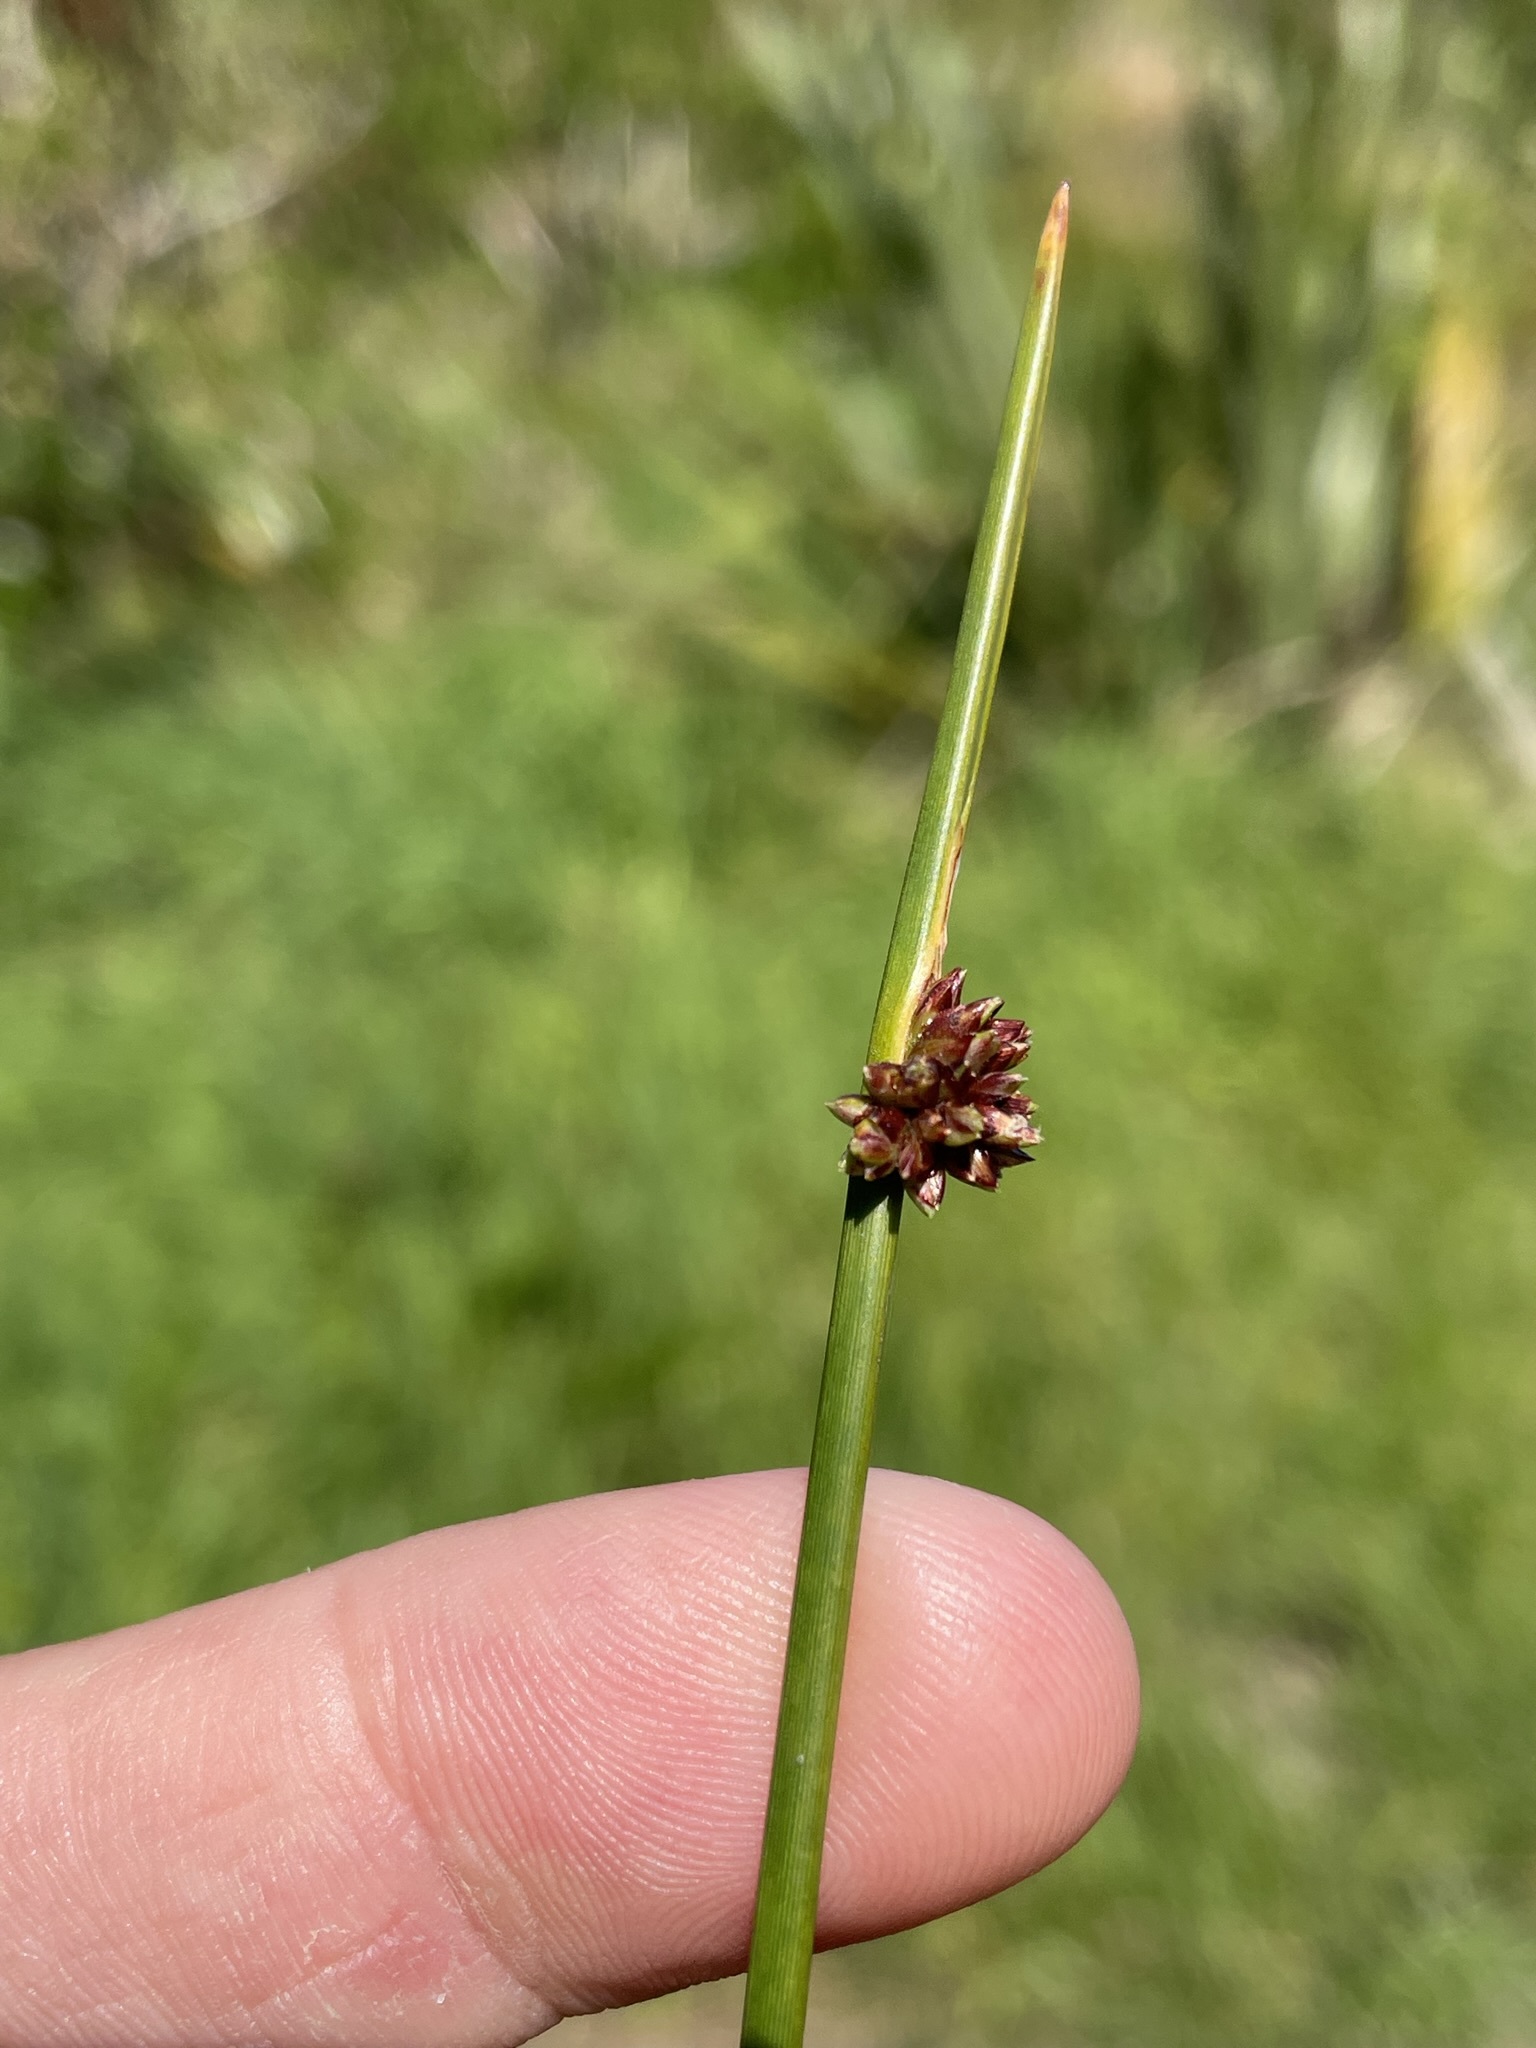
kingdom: Plantae
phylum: Tracheophyta
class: Liliopsida
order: Poales
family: Cyperaceae
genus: Ficinia
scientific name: Ficinia nodosa
